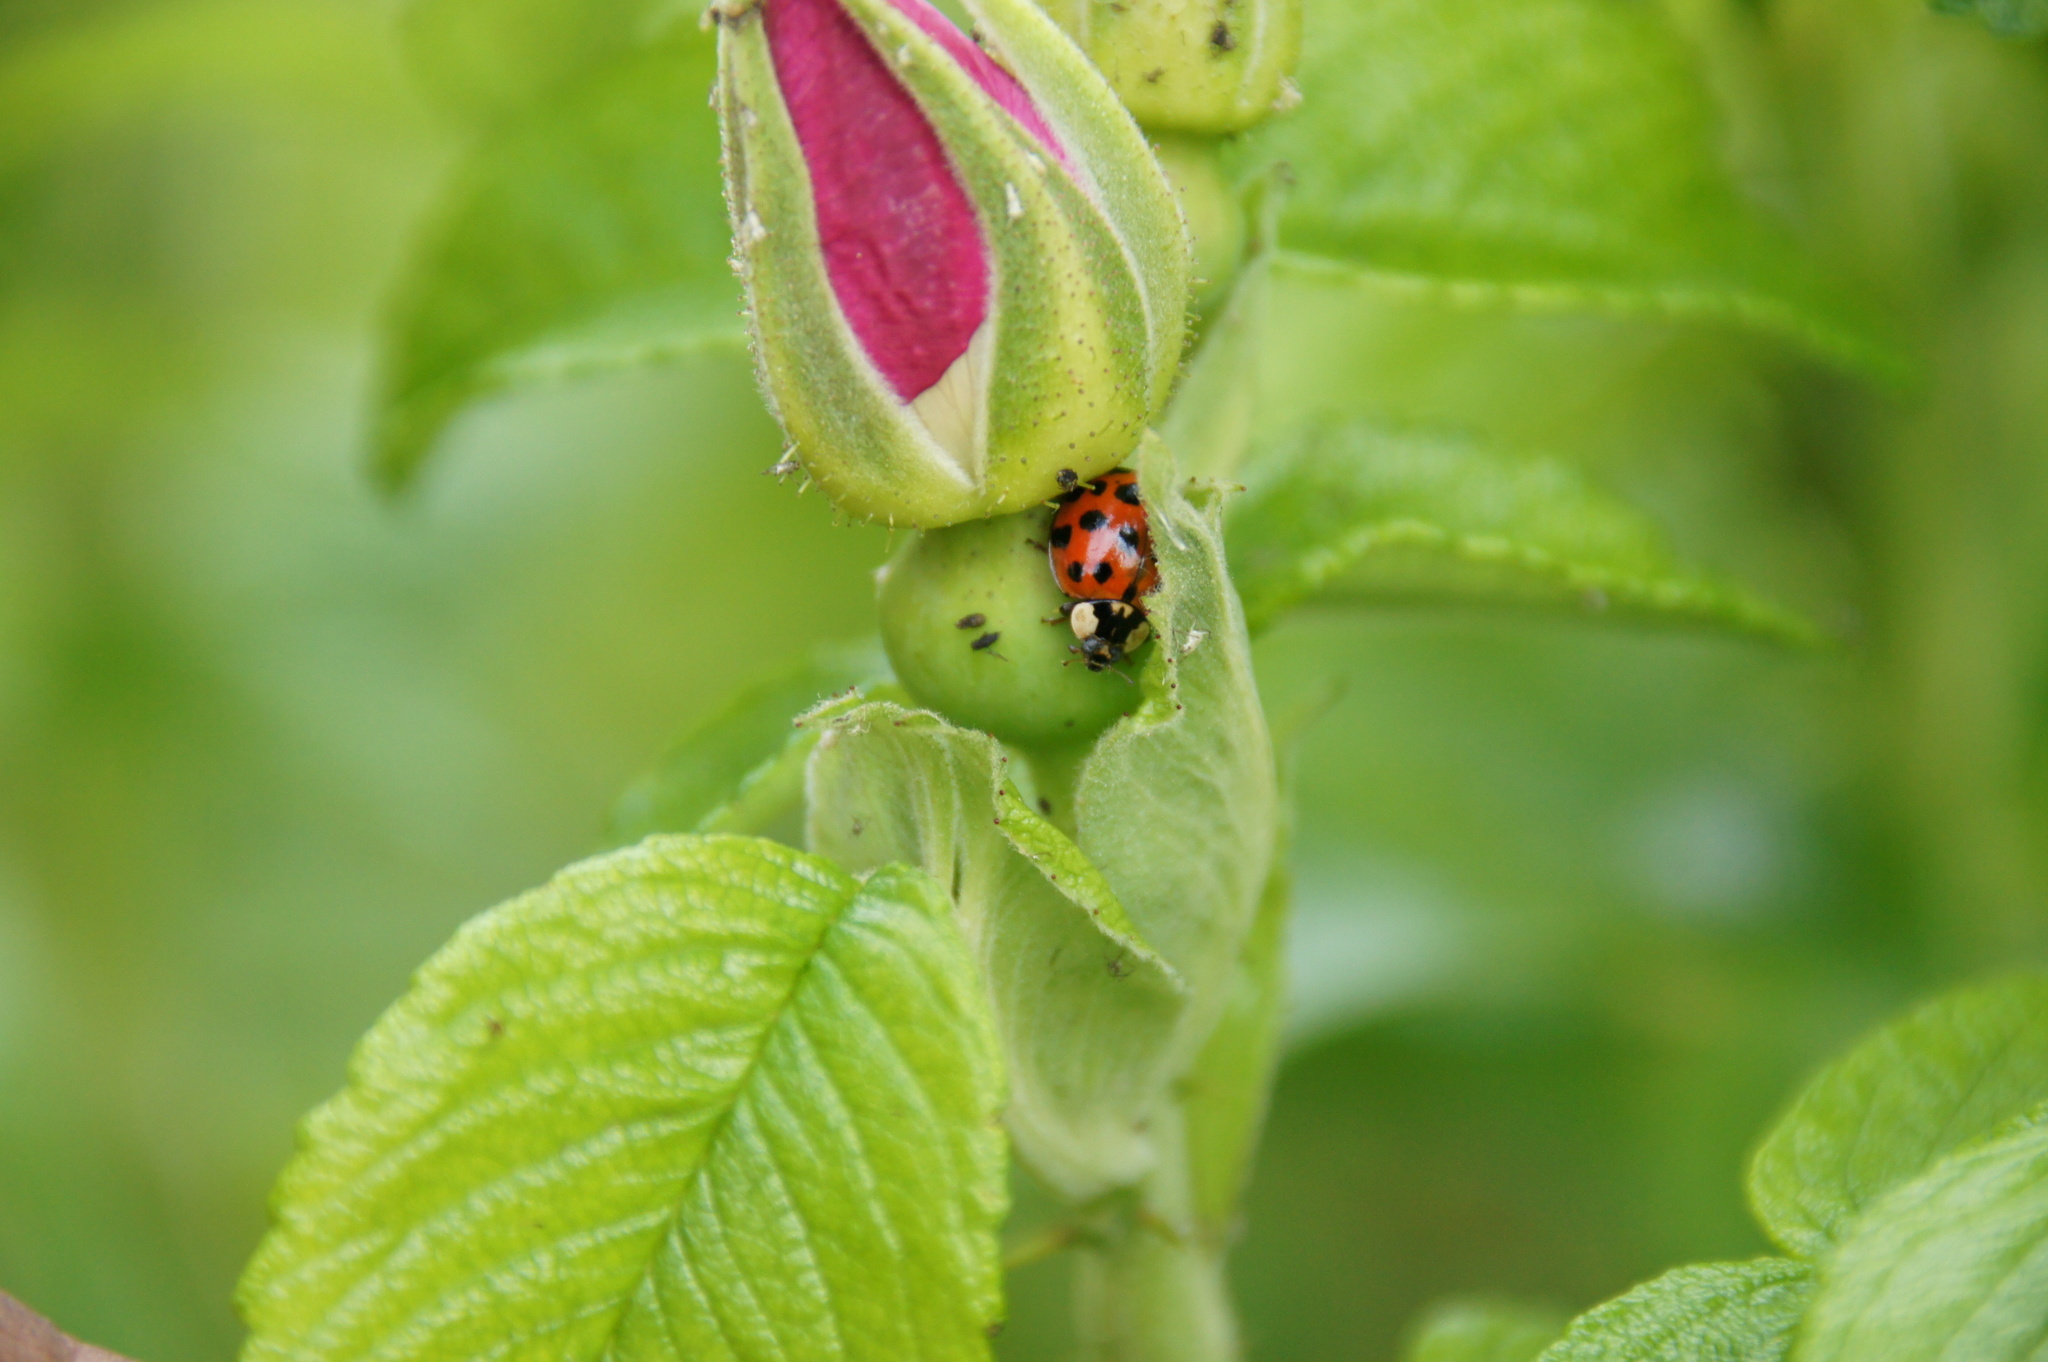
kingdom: Animalia
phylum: Arthropoda
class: Insecta
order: Coleoptera
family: Coccinellidae
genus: Harmonia
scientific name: Harmonia axyridis
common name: Harlequin ladybird
